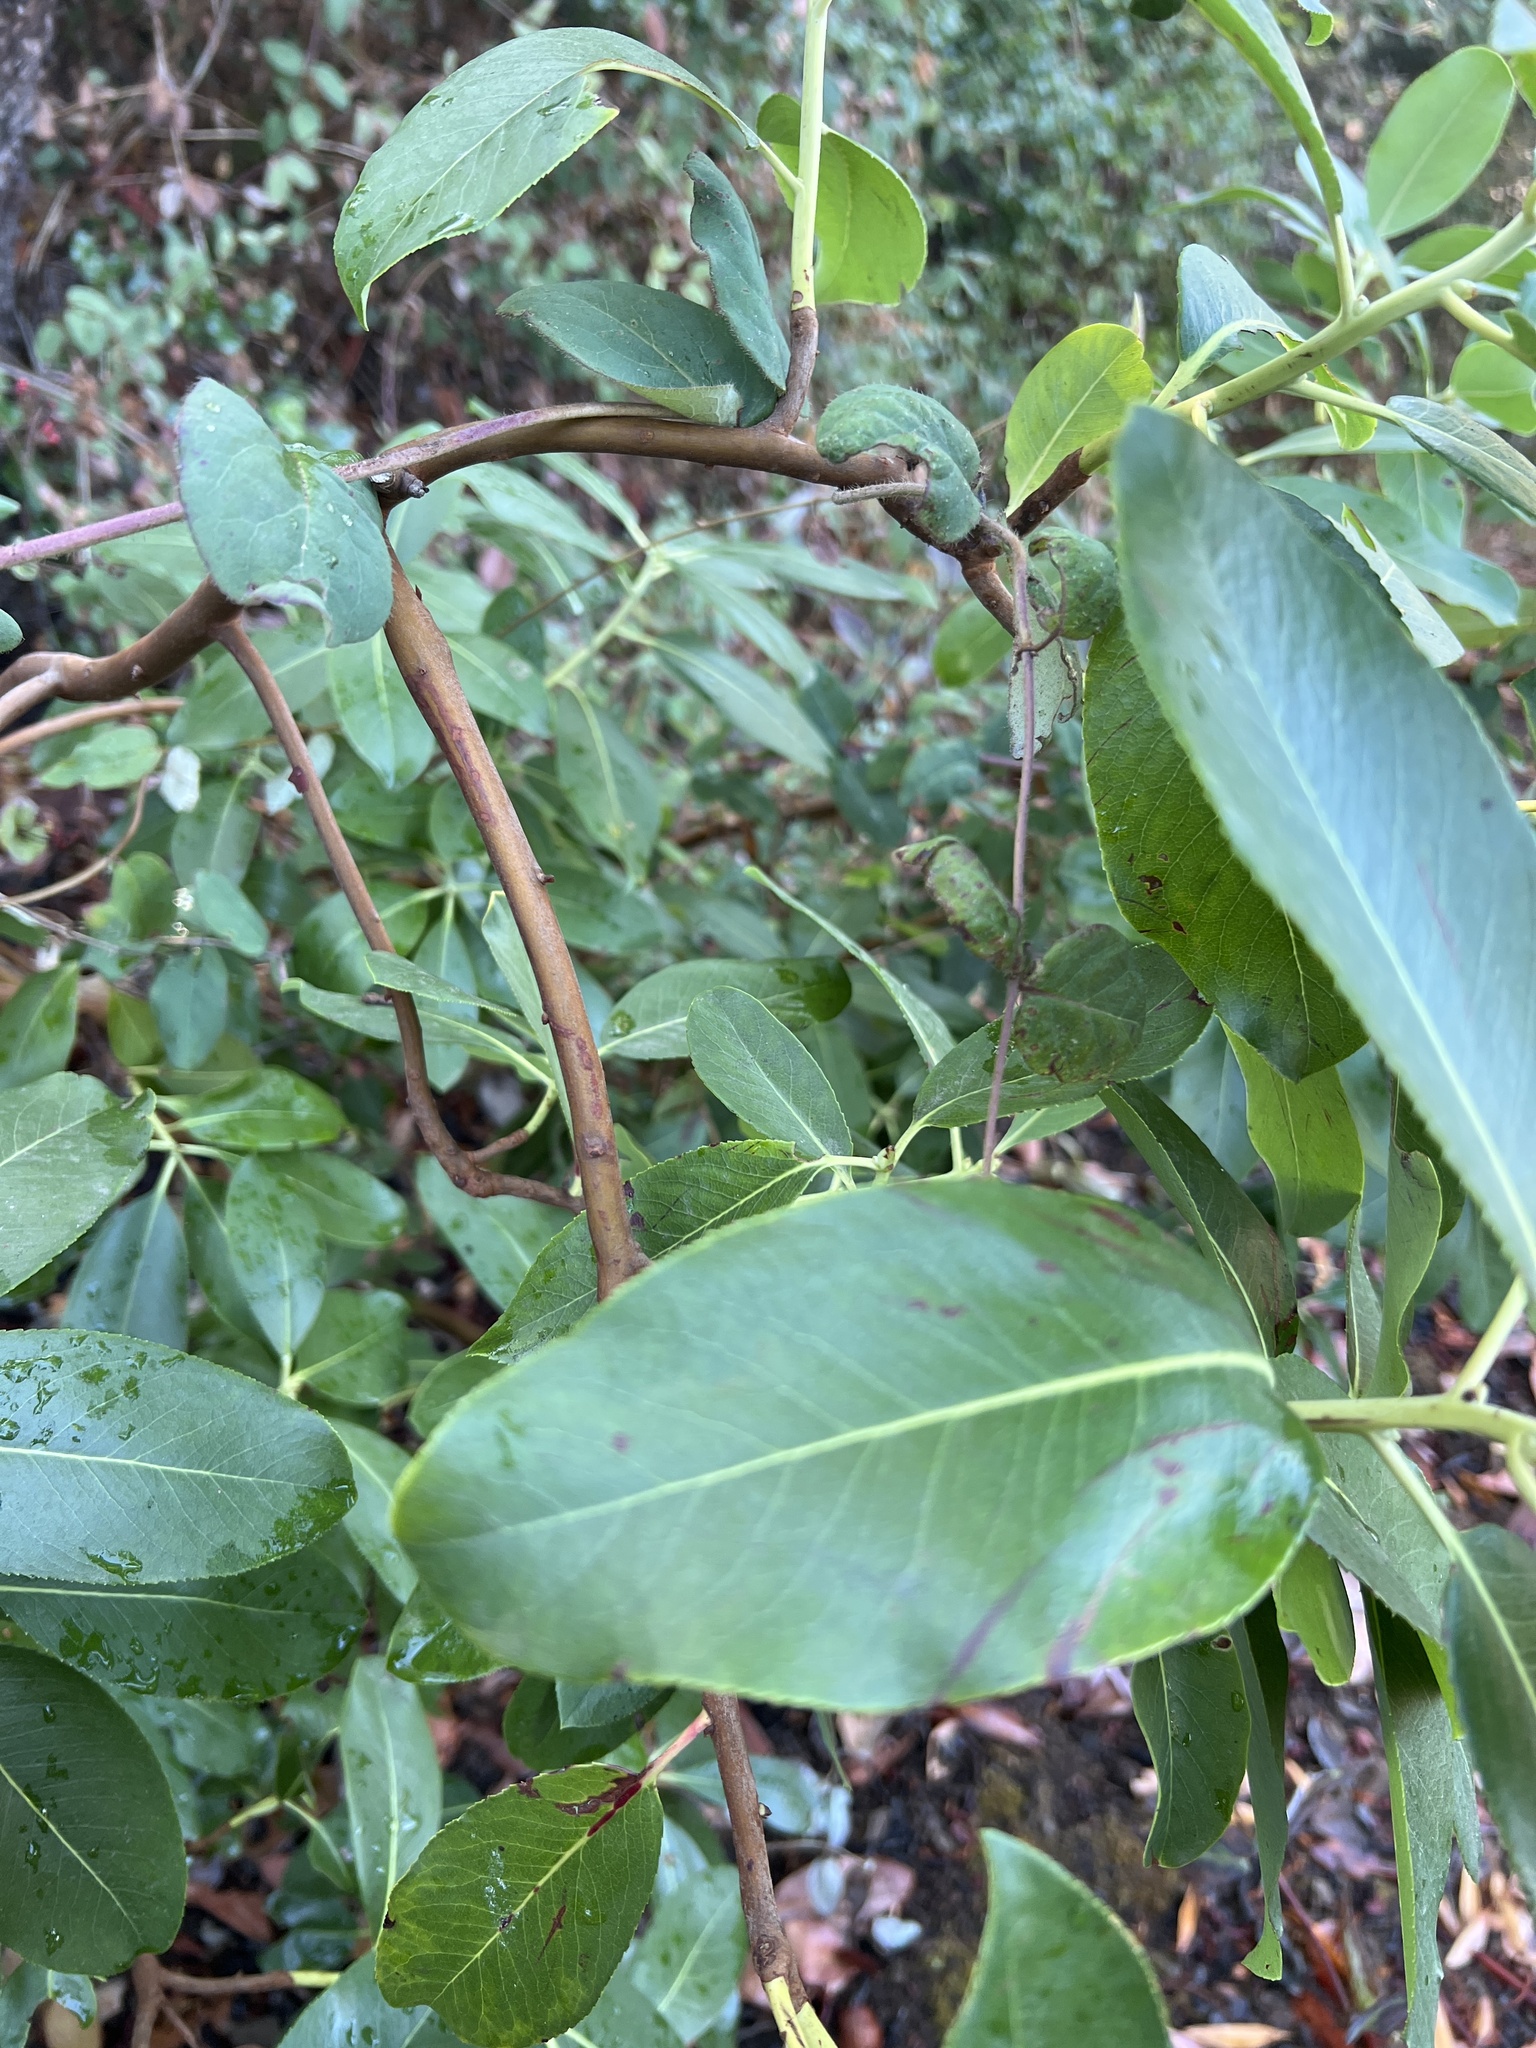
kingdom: Plantae
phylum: Tracheophyta
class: Magnoliopsida
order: Ericales
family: Ericaceae
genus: Arbutus
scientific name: Arbutus menziesii
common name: Pacific madrone
